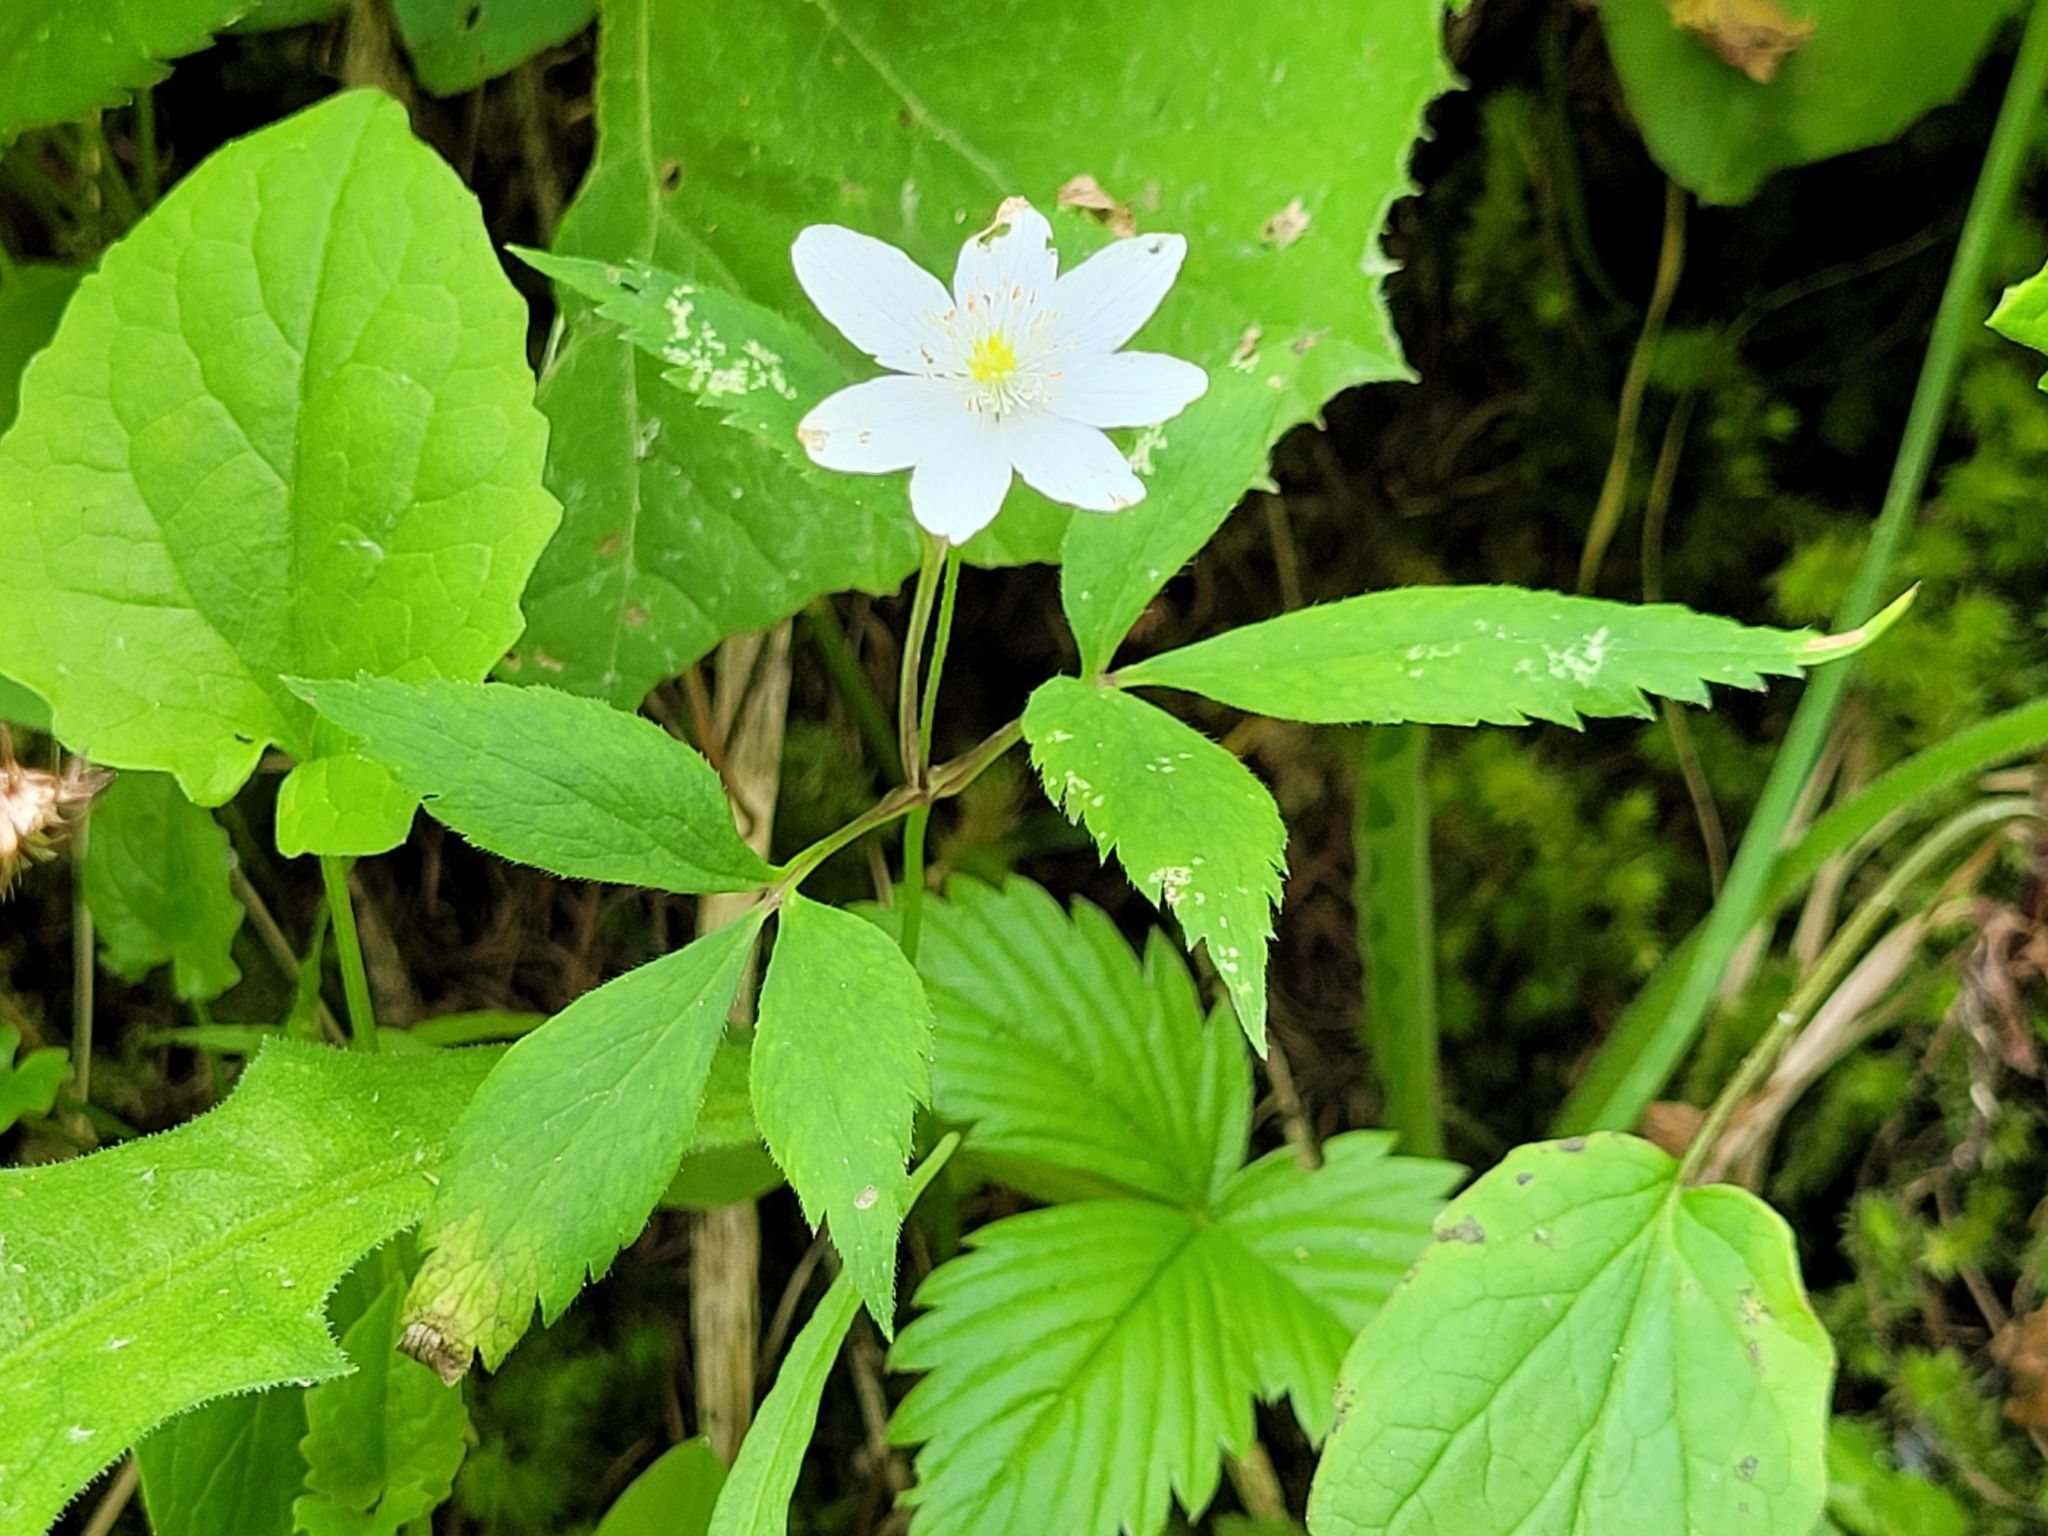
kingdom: Plantae
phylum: Tracheophyta
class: Magnoliopsida
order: Ranunculales
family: Ranunculaceae
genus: Anemone
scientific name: Anemone trifolia
